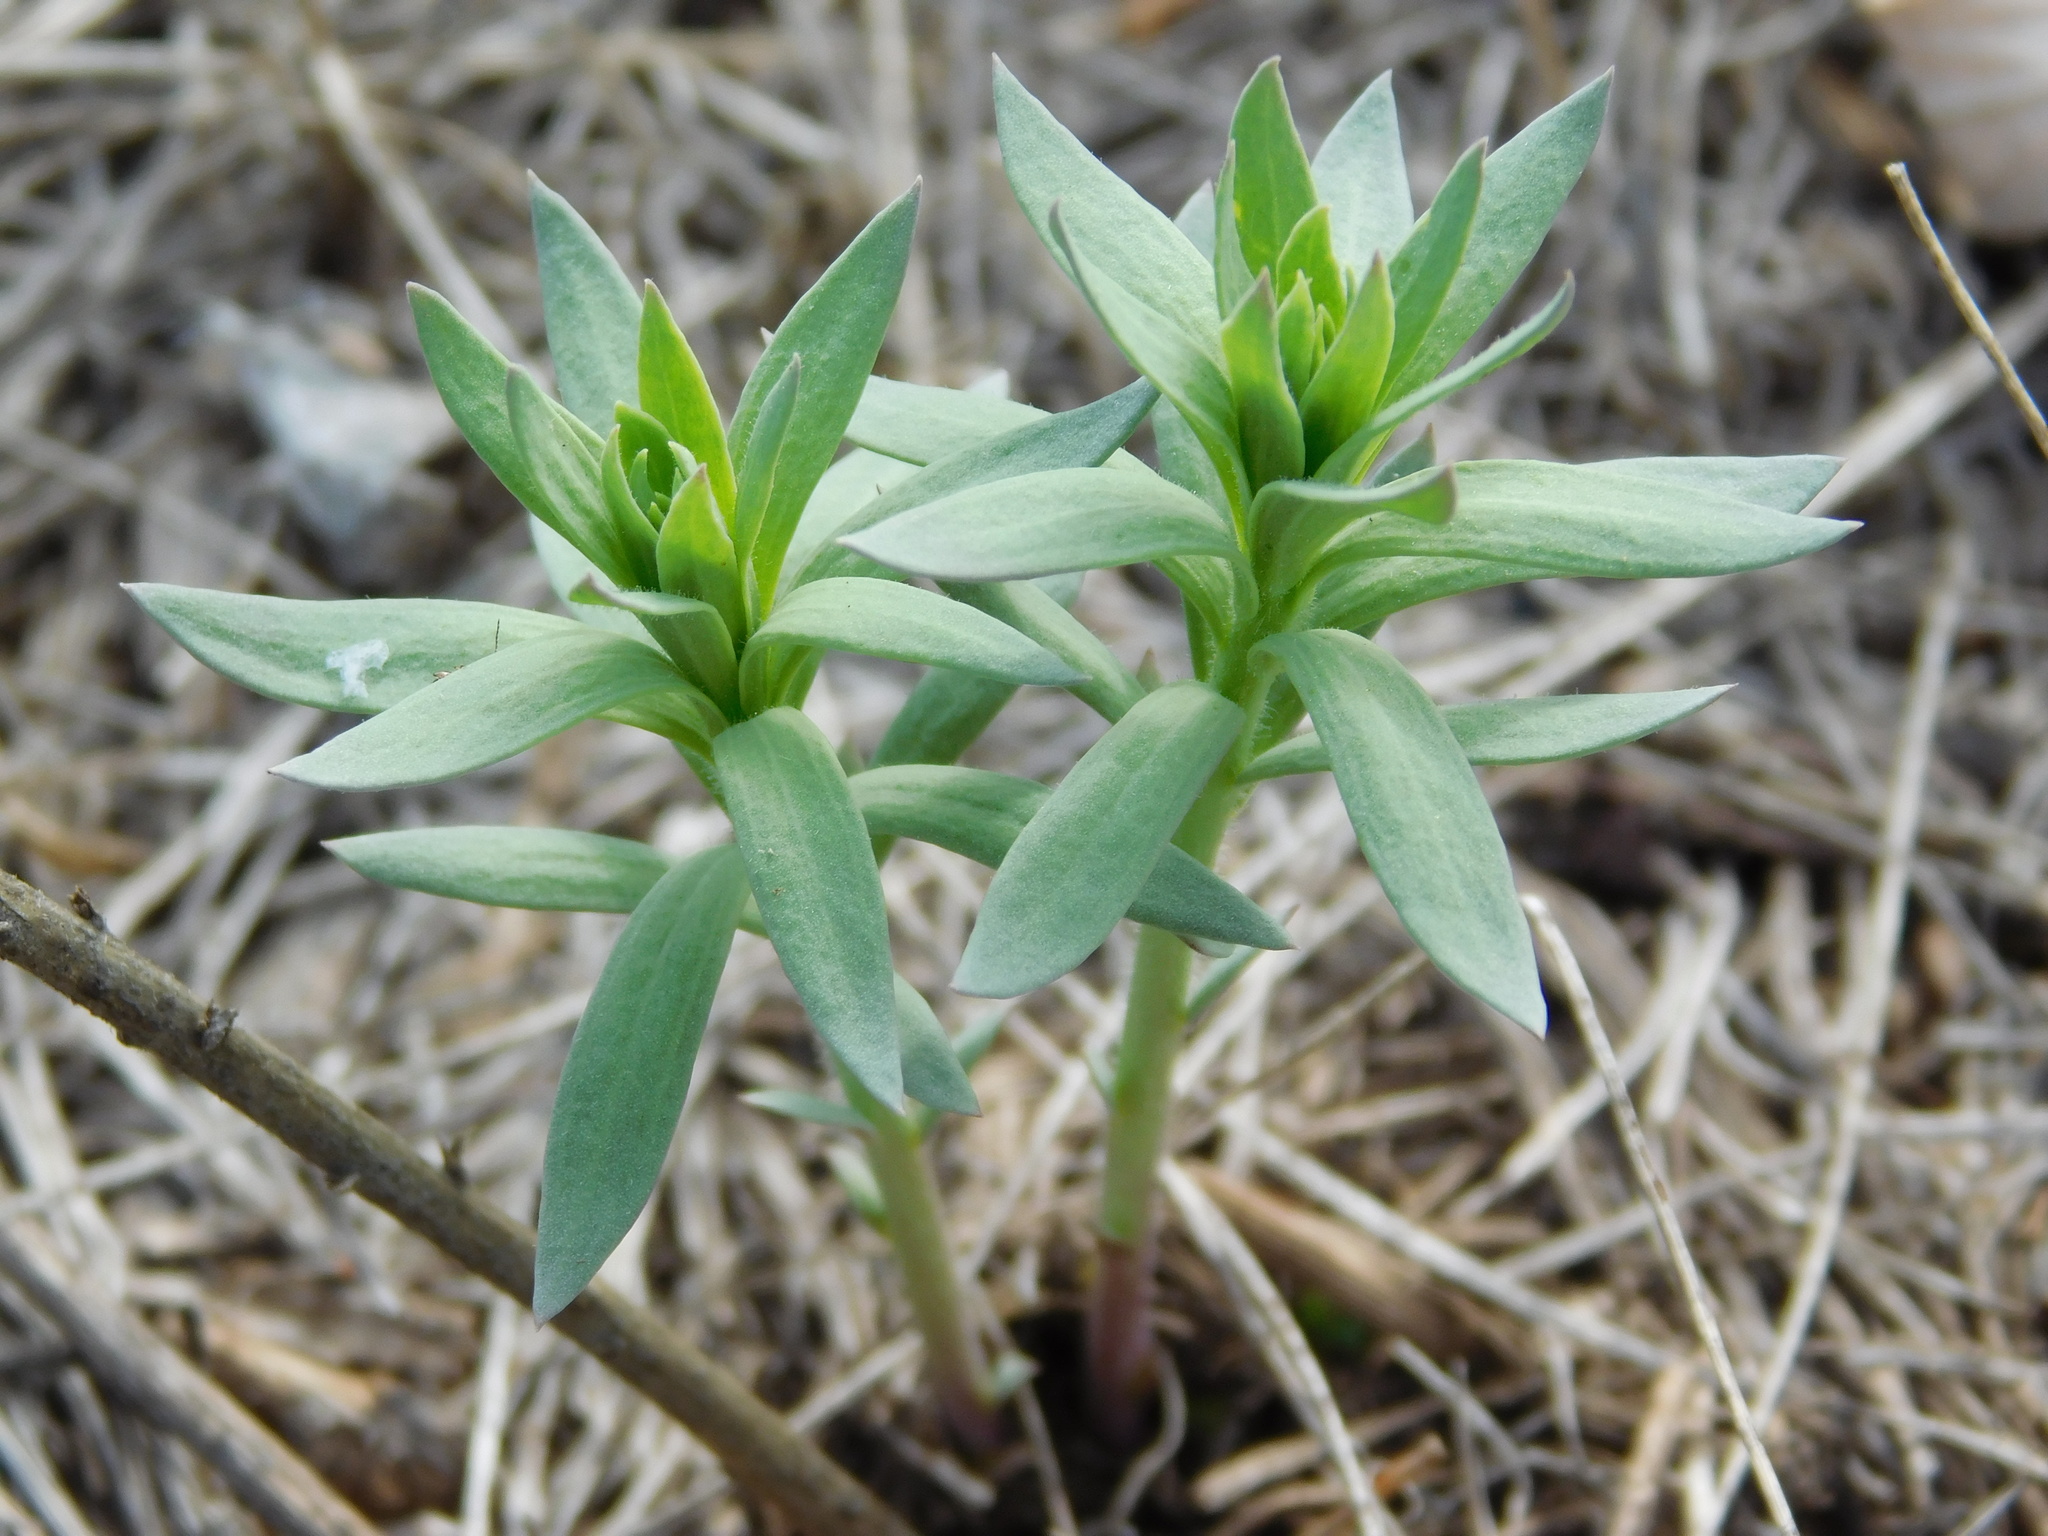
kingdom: Plantae
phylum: Tracheophyta
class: Magnoliopsida
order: Malpighiales
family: Euphorbiaceae
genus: Euphorbia
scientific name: Euphorbia virgata
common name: Leafy spurge
